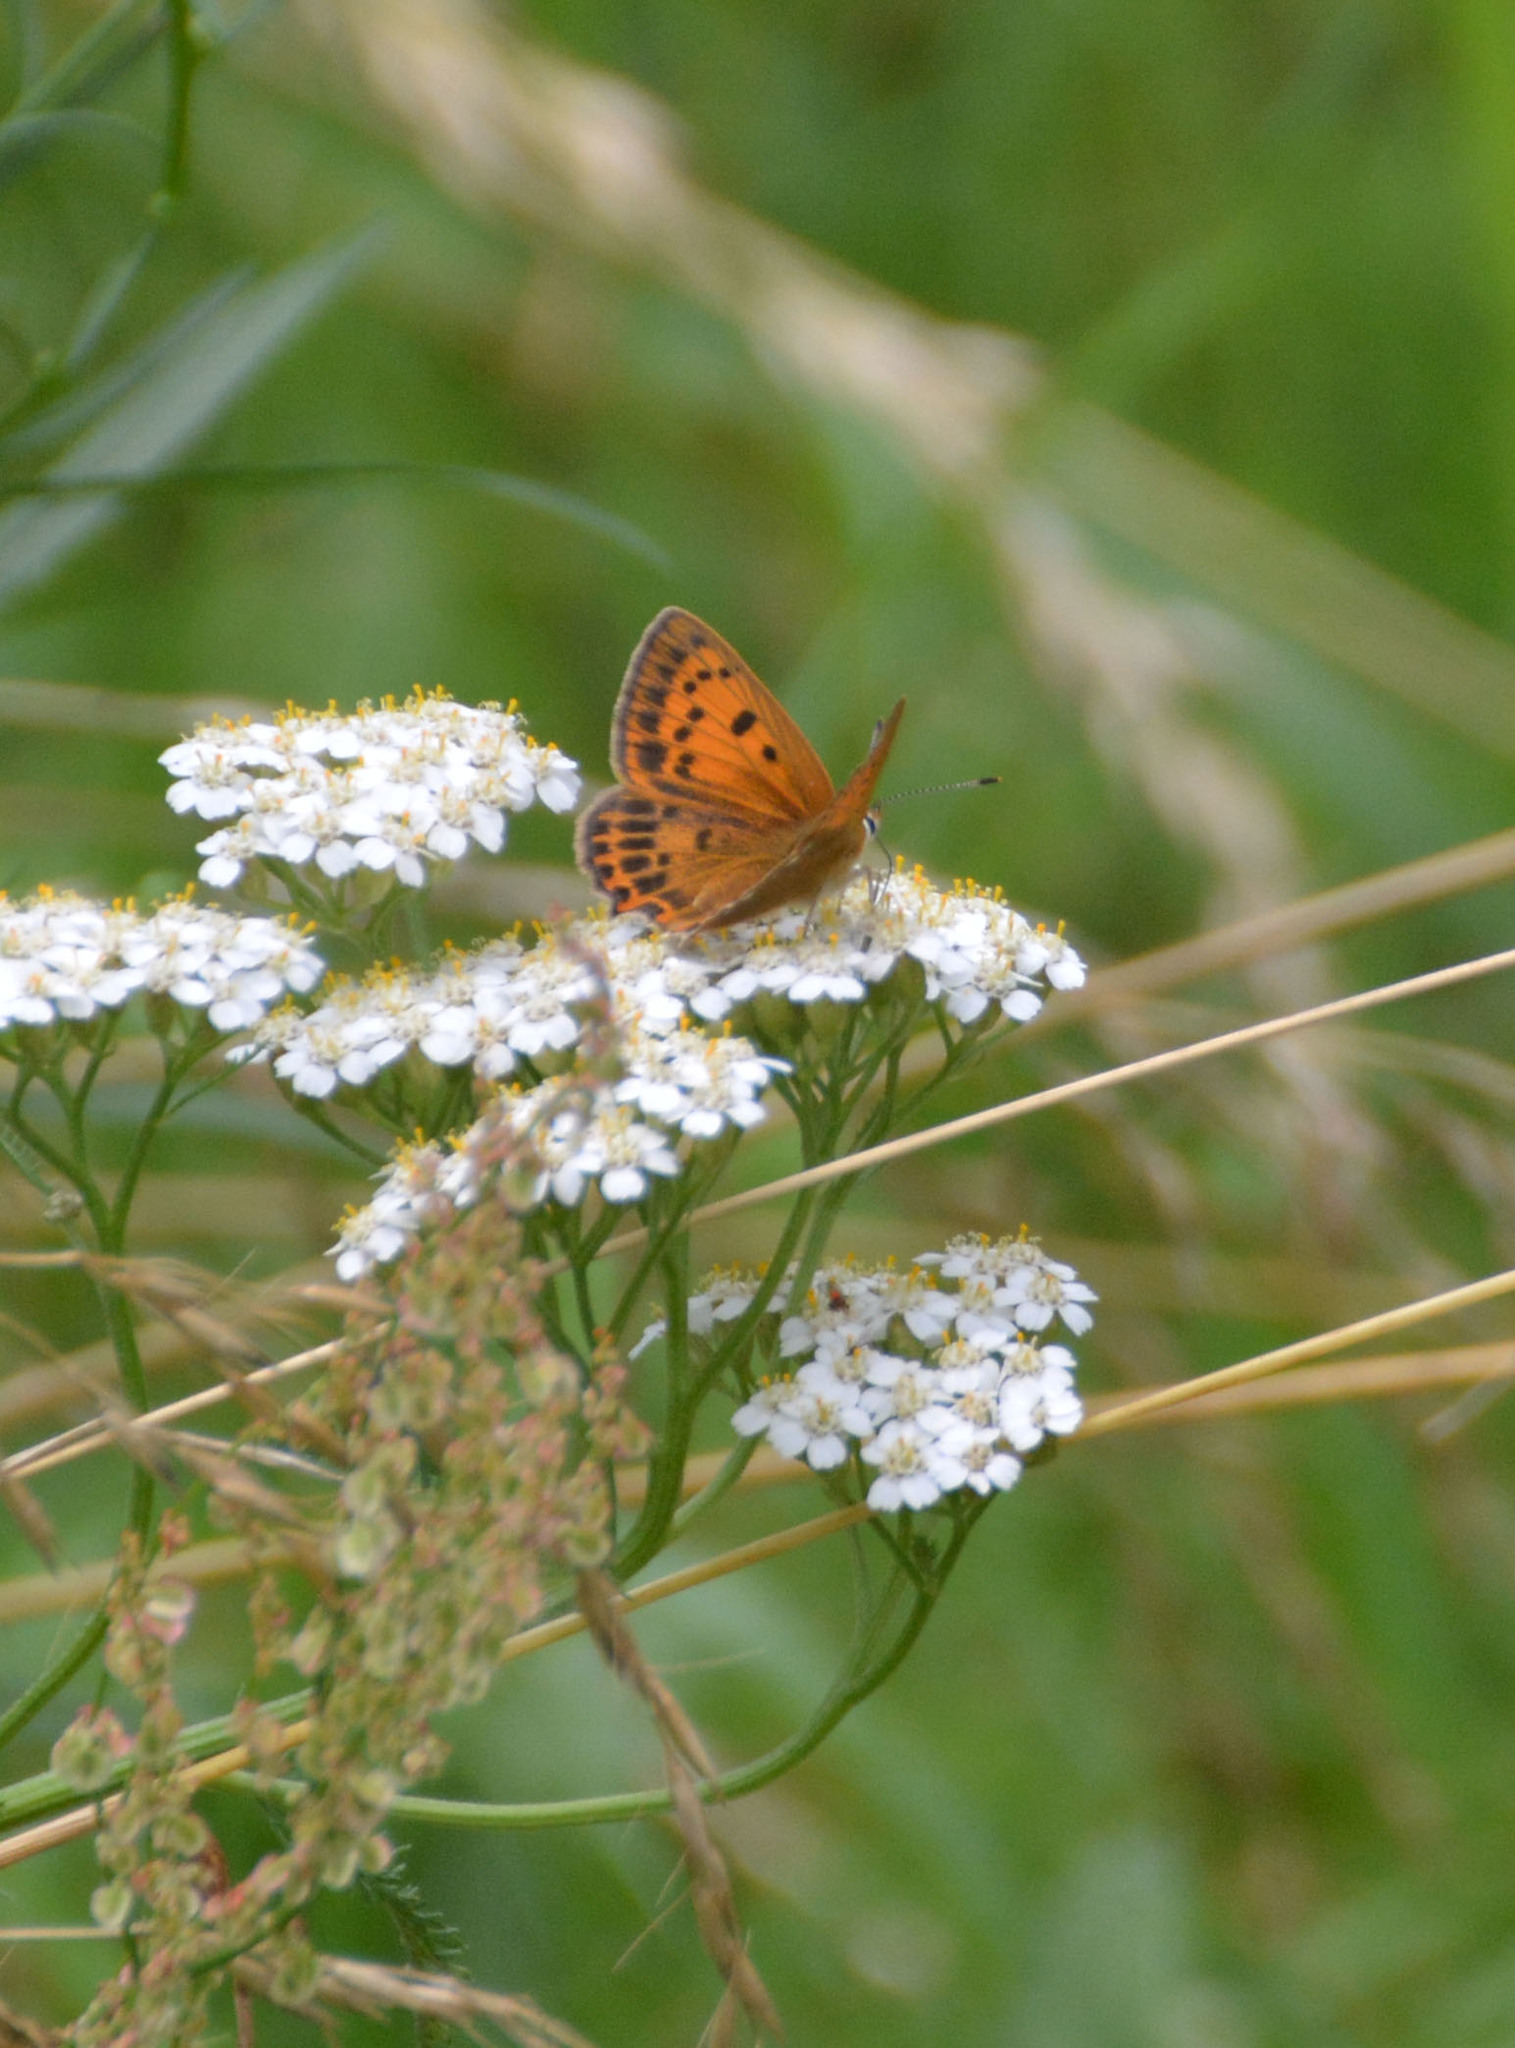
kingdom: Animalia
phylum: Arthropoda
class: Insecta
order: Lepidoptera
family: Lycaenidae
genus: Lycaena
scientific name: Lycaena virgaureae
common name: Scarce copper
